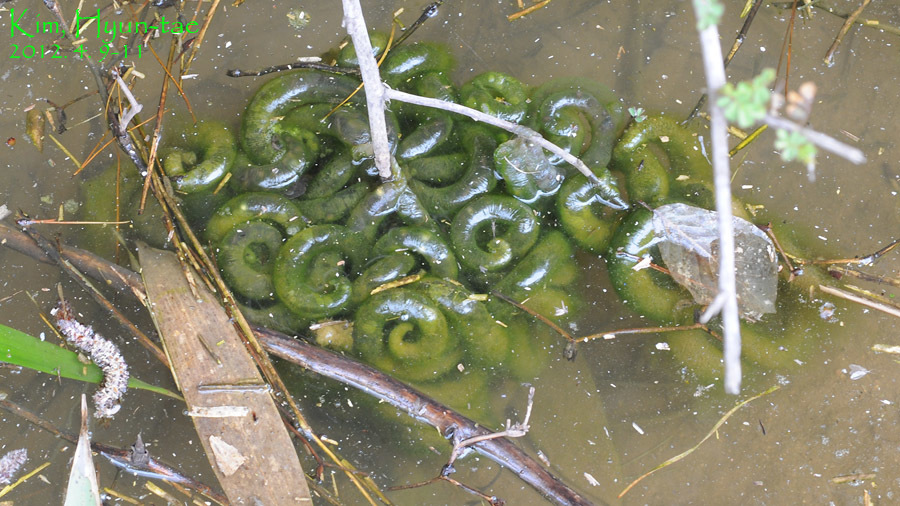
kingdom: Animalia
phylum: Chordata
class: Amphibia
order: Caudata
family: Hynobiidae
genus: Hynobius
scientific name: Hynobius leechii
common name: Gensan salamander
